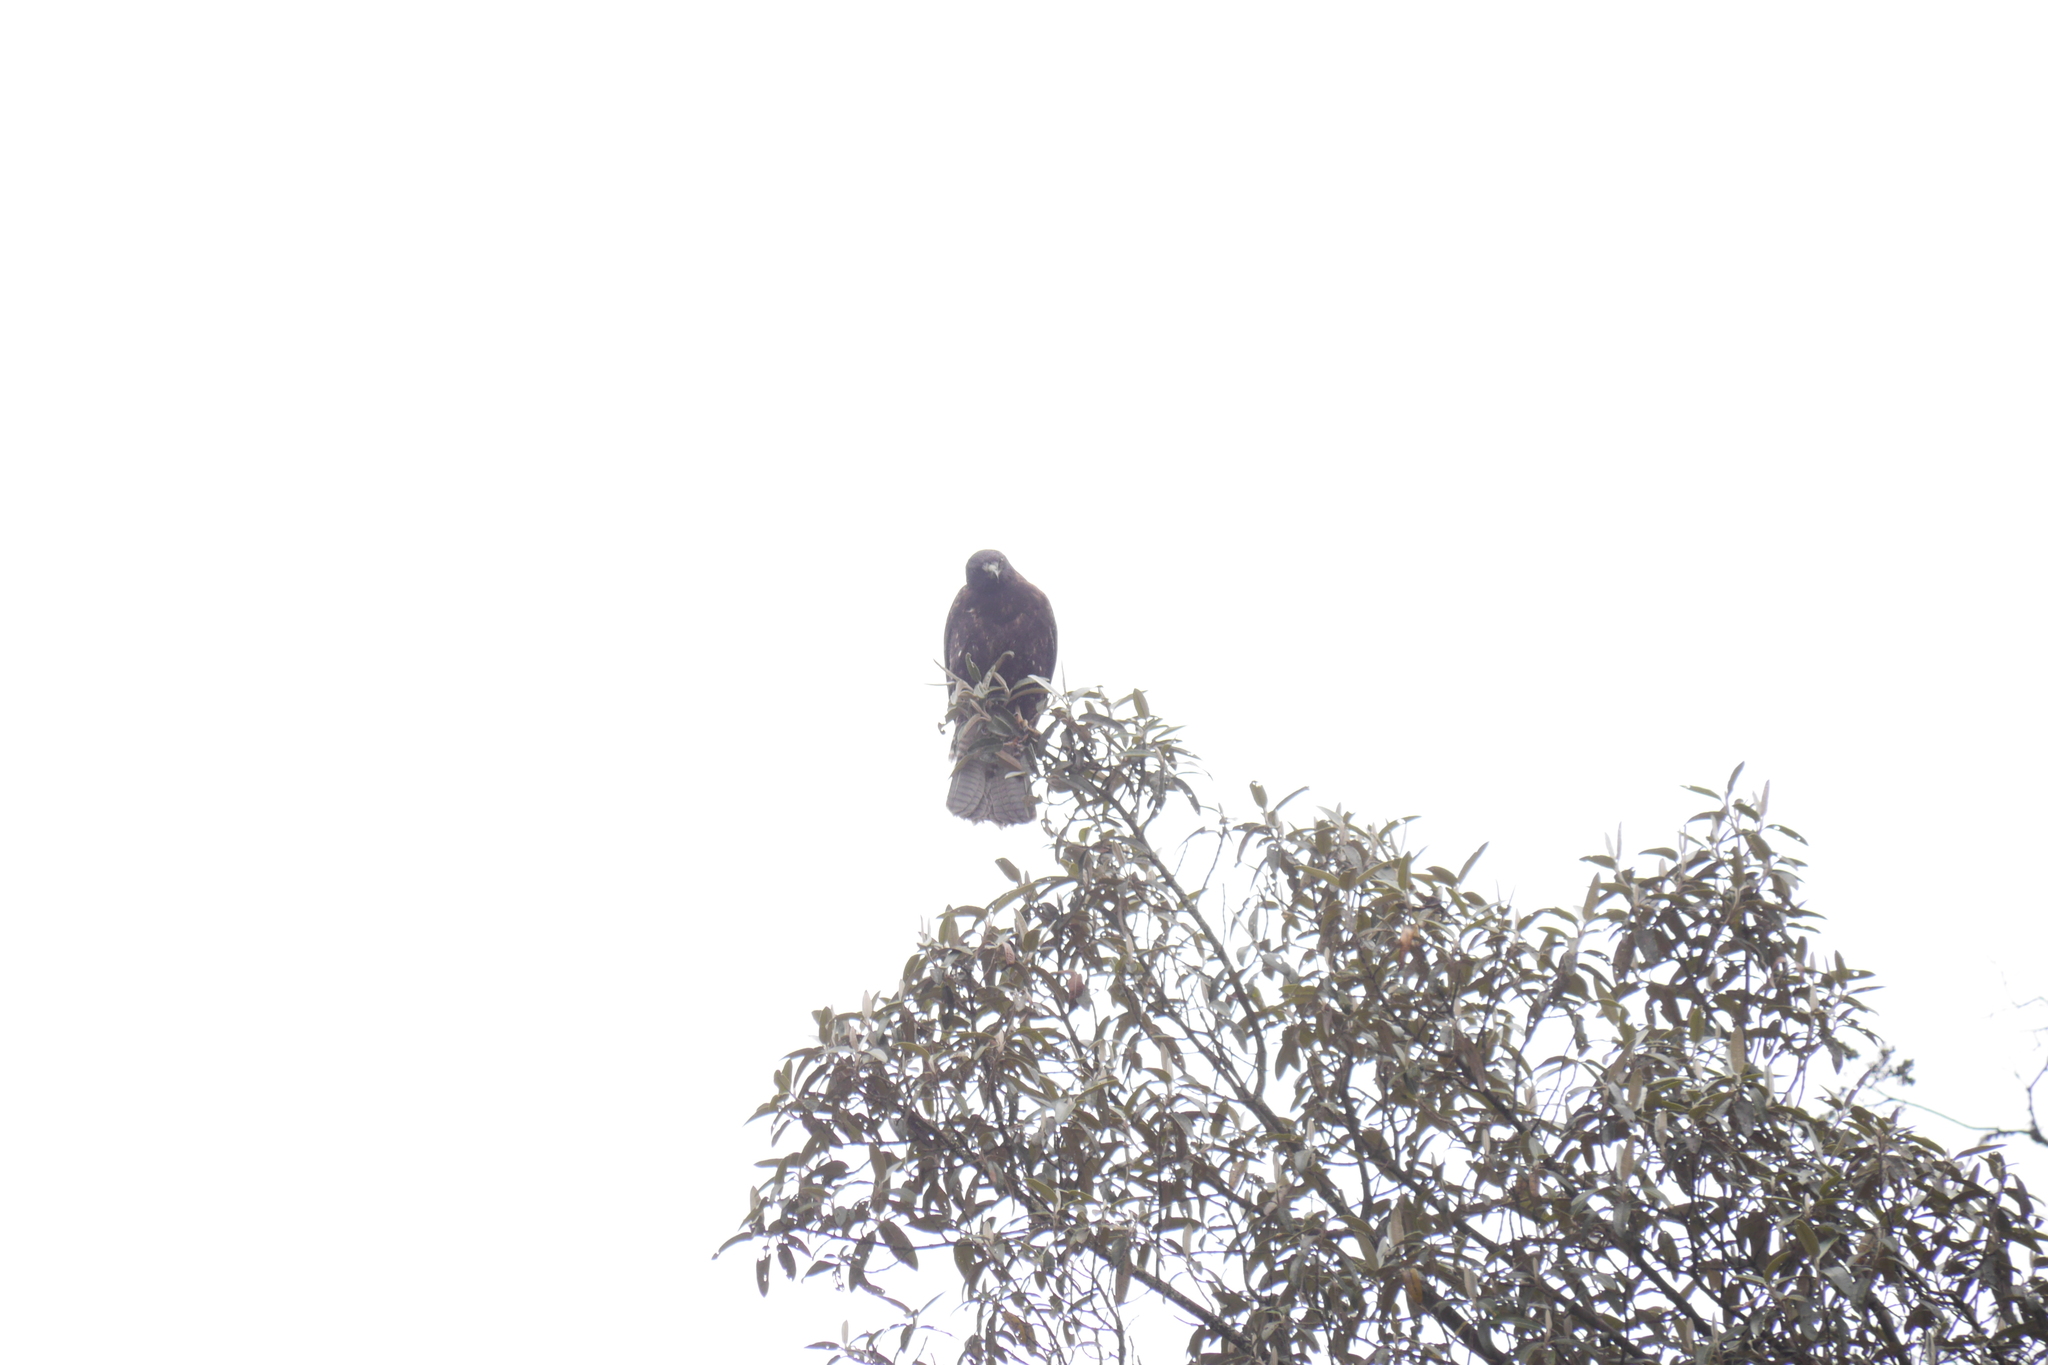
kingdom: Animalia
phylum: Chordata
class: Aves
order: Accipitriformes
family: Accipitridae
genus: Parabuteo
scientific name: Parabuteo unicinctus
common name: Harris's hawk
